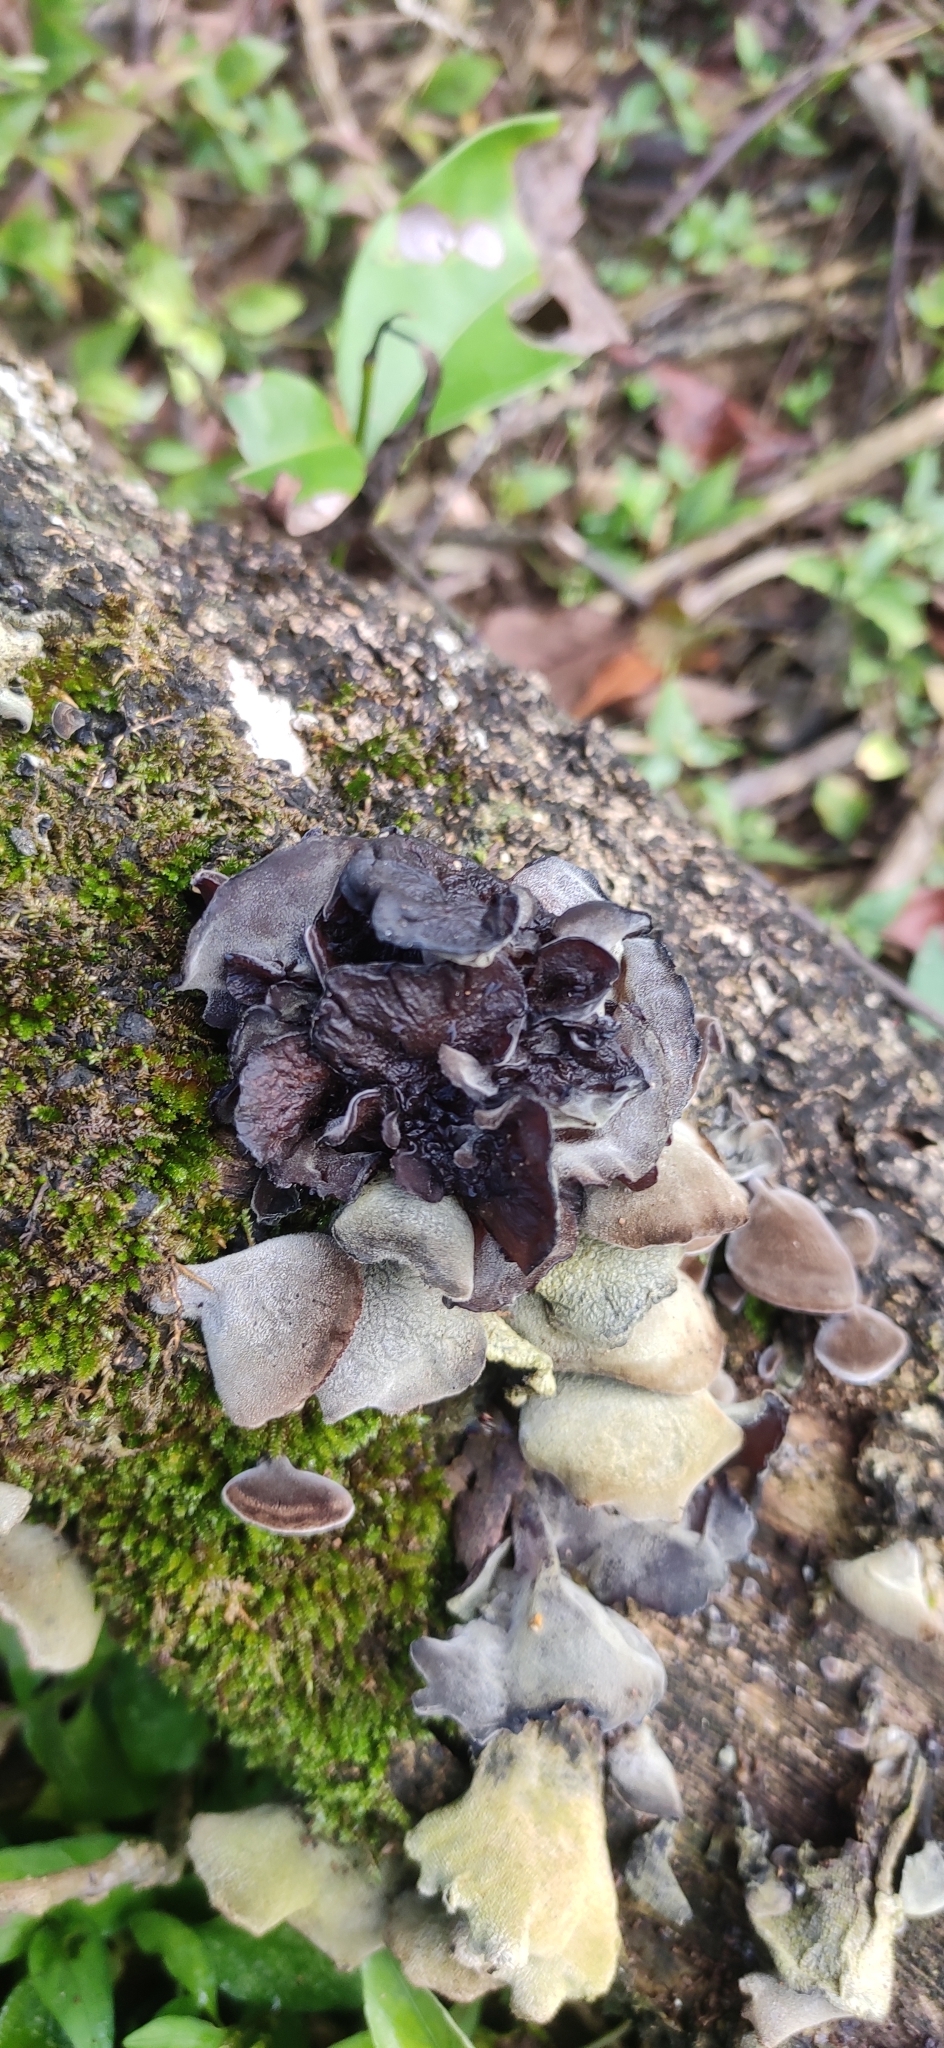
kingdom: Fungi
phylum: Basidiomycota
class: Agaricomycetes
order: Auriculariales
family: Auriculariaceae
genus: Auricularia
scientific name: Auricularia nigricans
